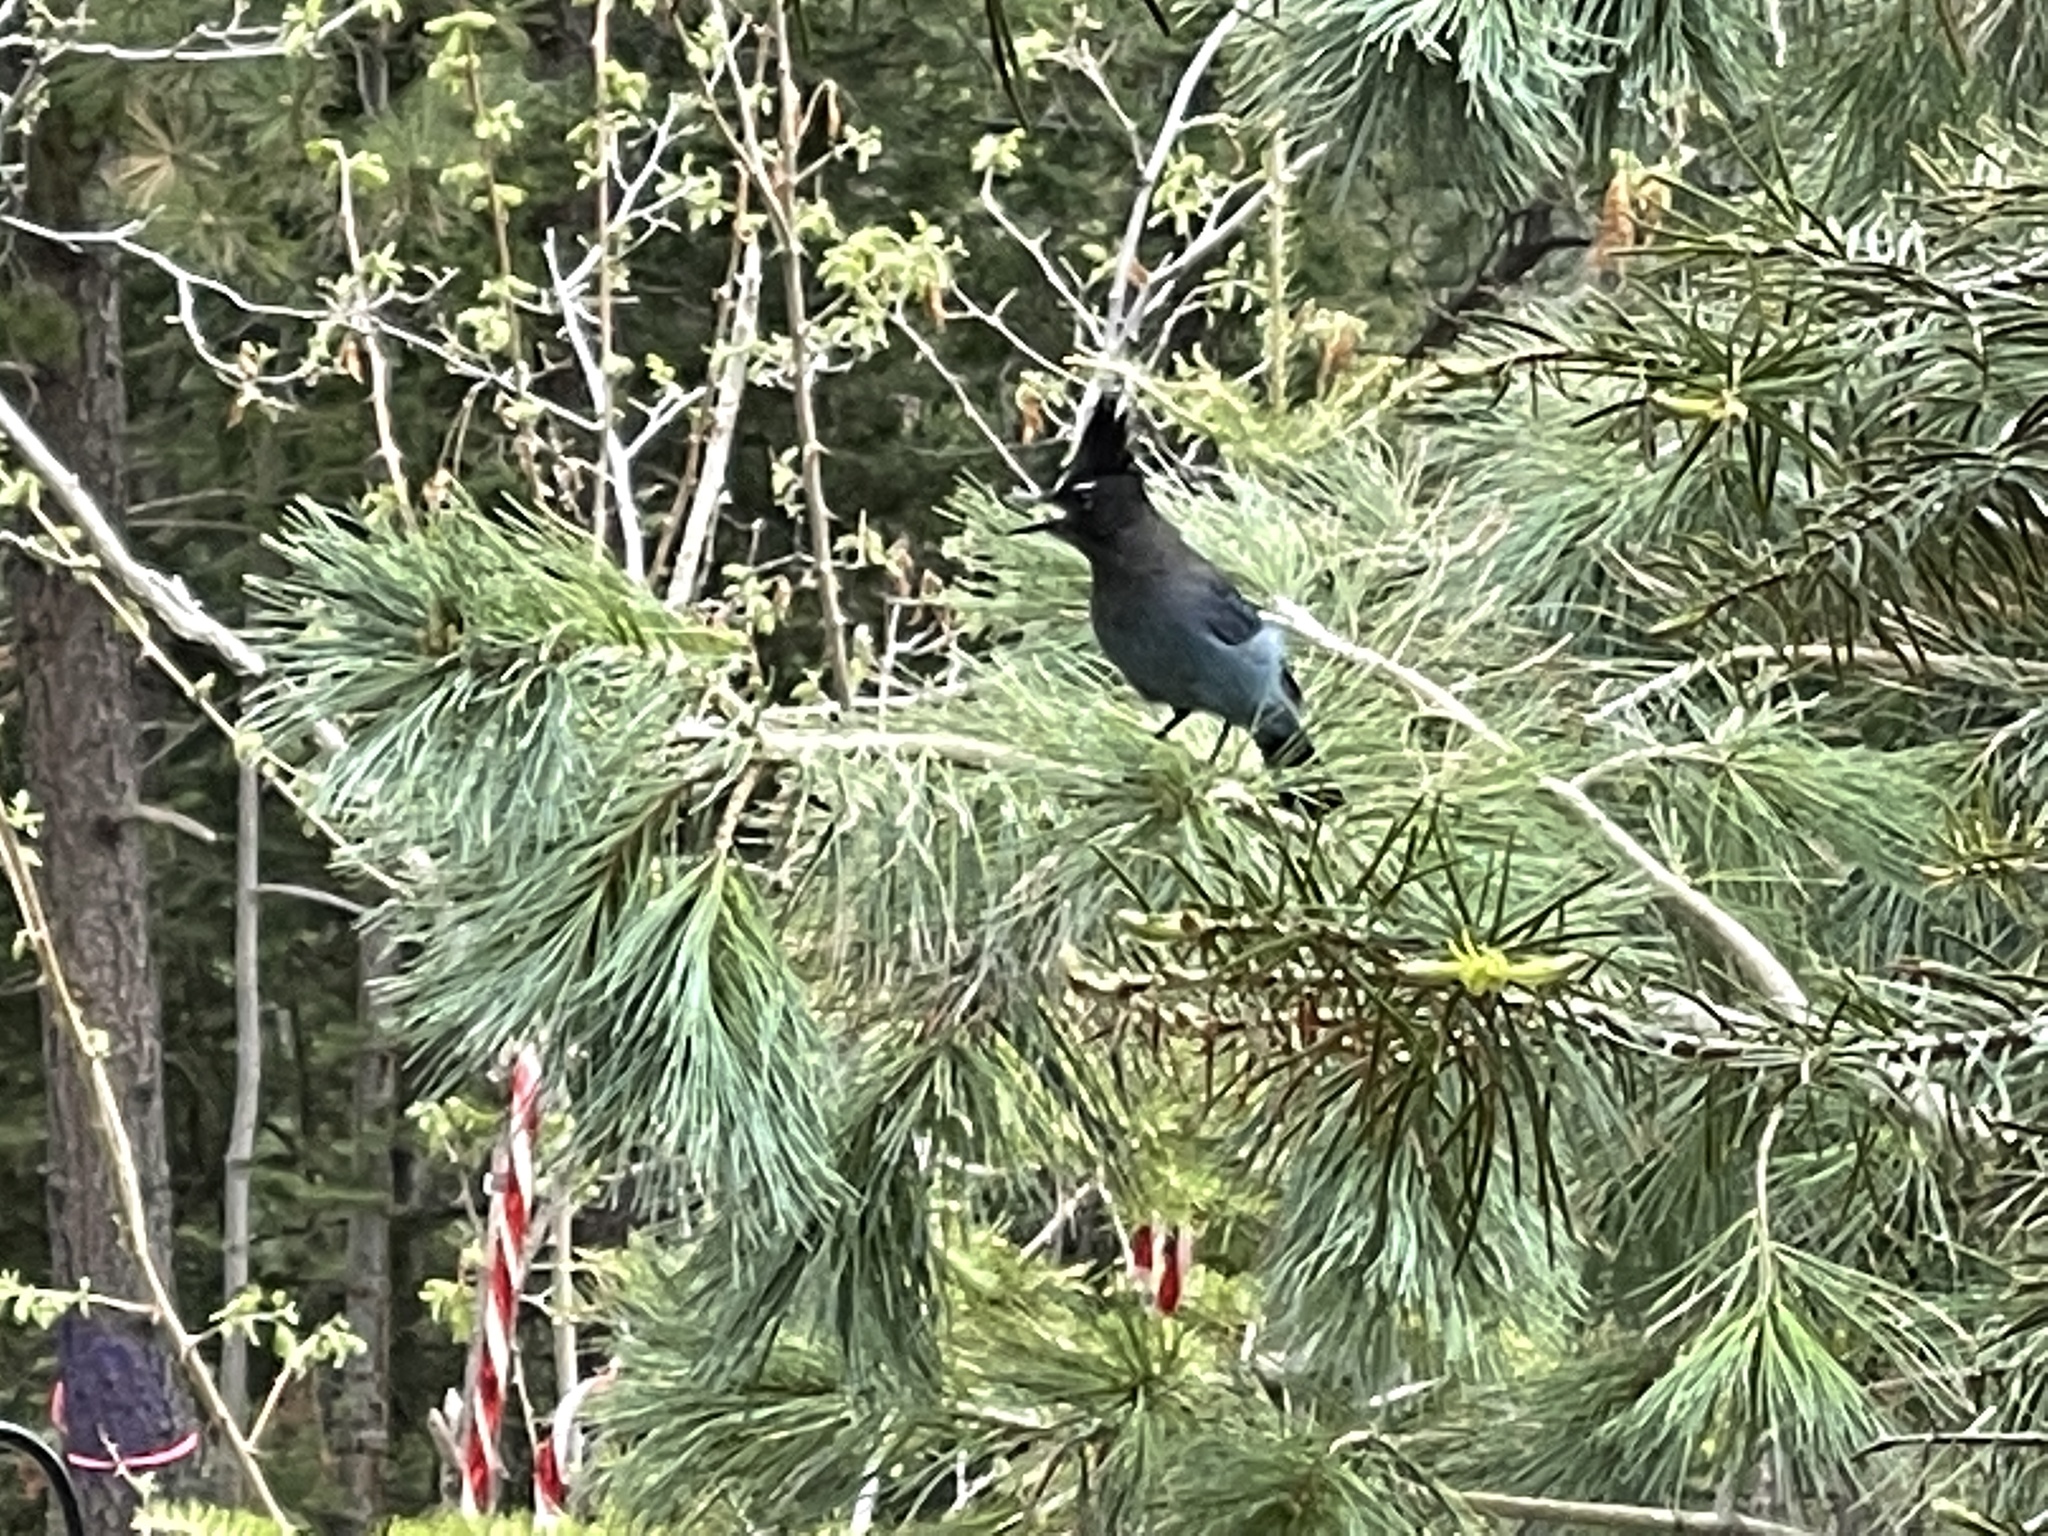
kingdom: Animalia
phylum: Chordata
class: Aves
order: Passeriformes
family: Corvidae
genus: Cyanocitta
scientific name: Cyanocitta stelleri
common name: Steller's jay
